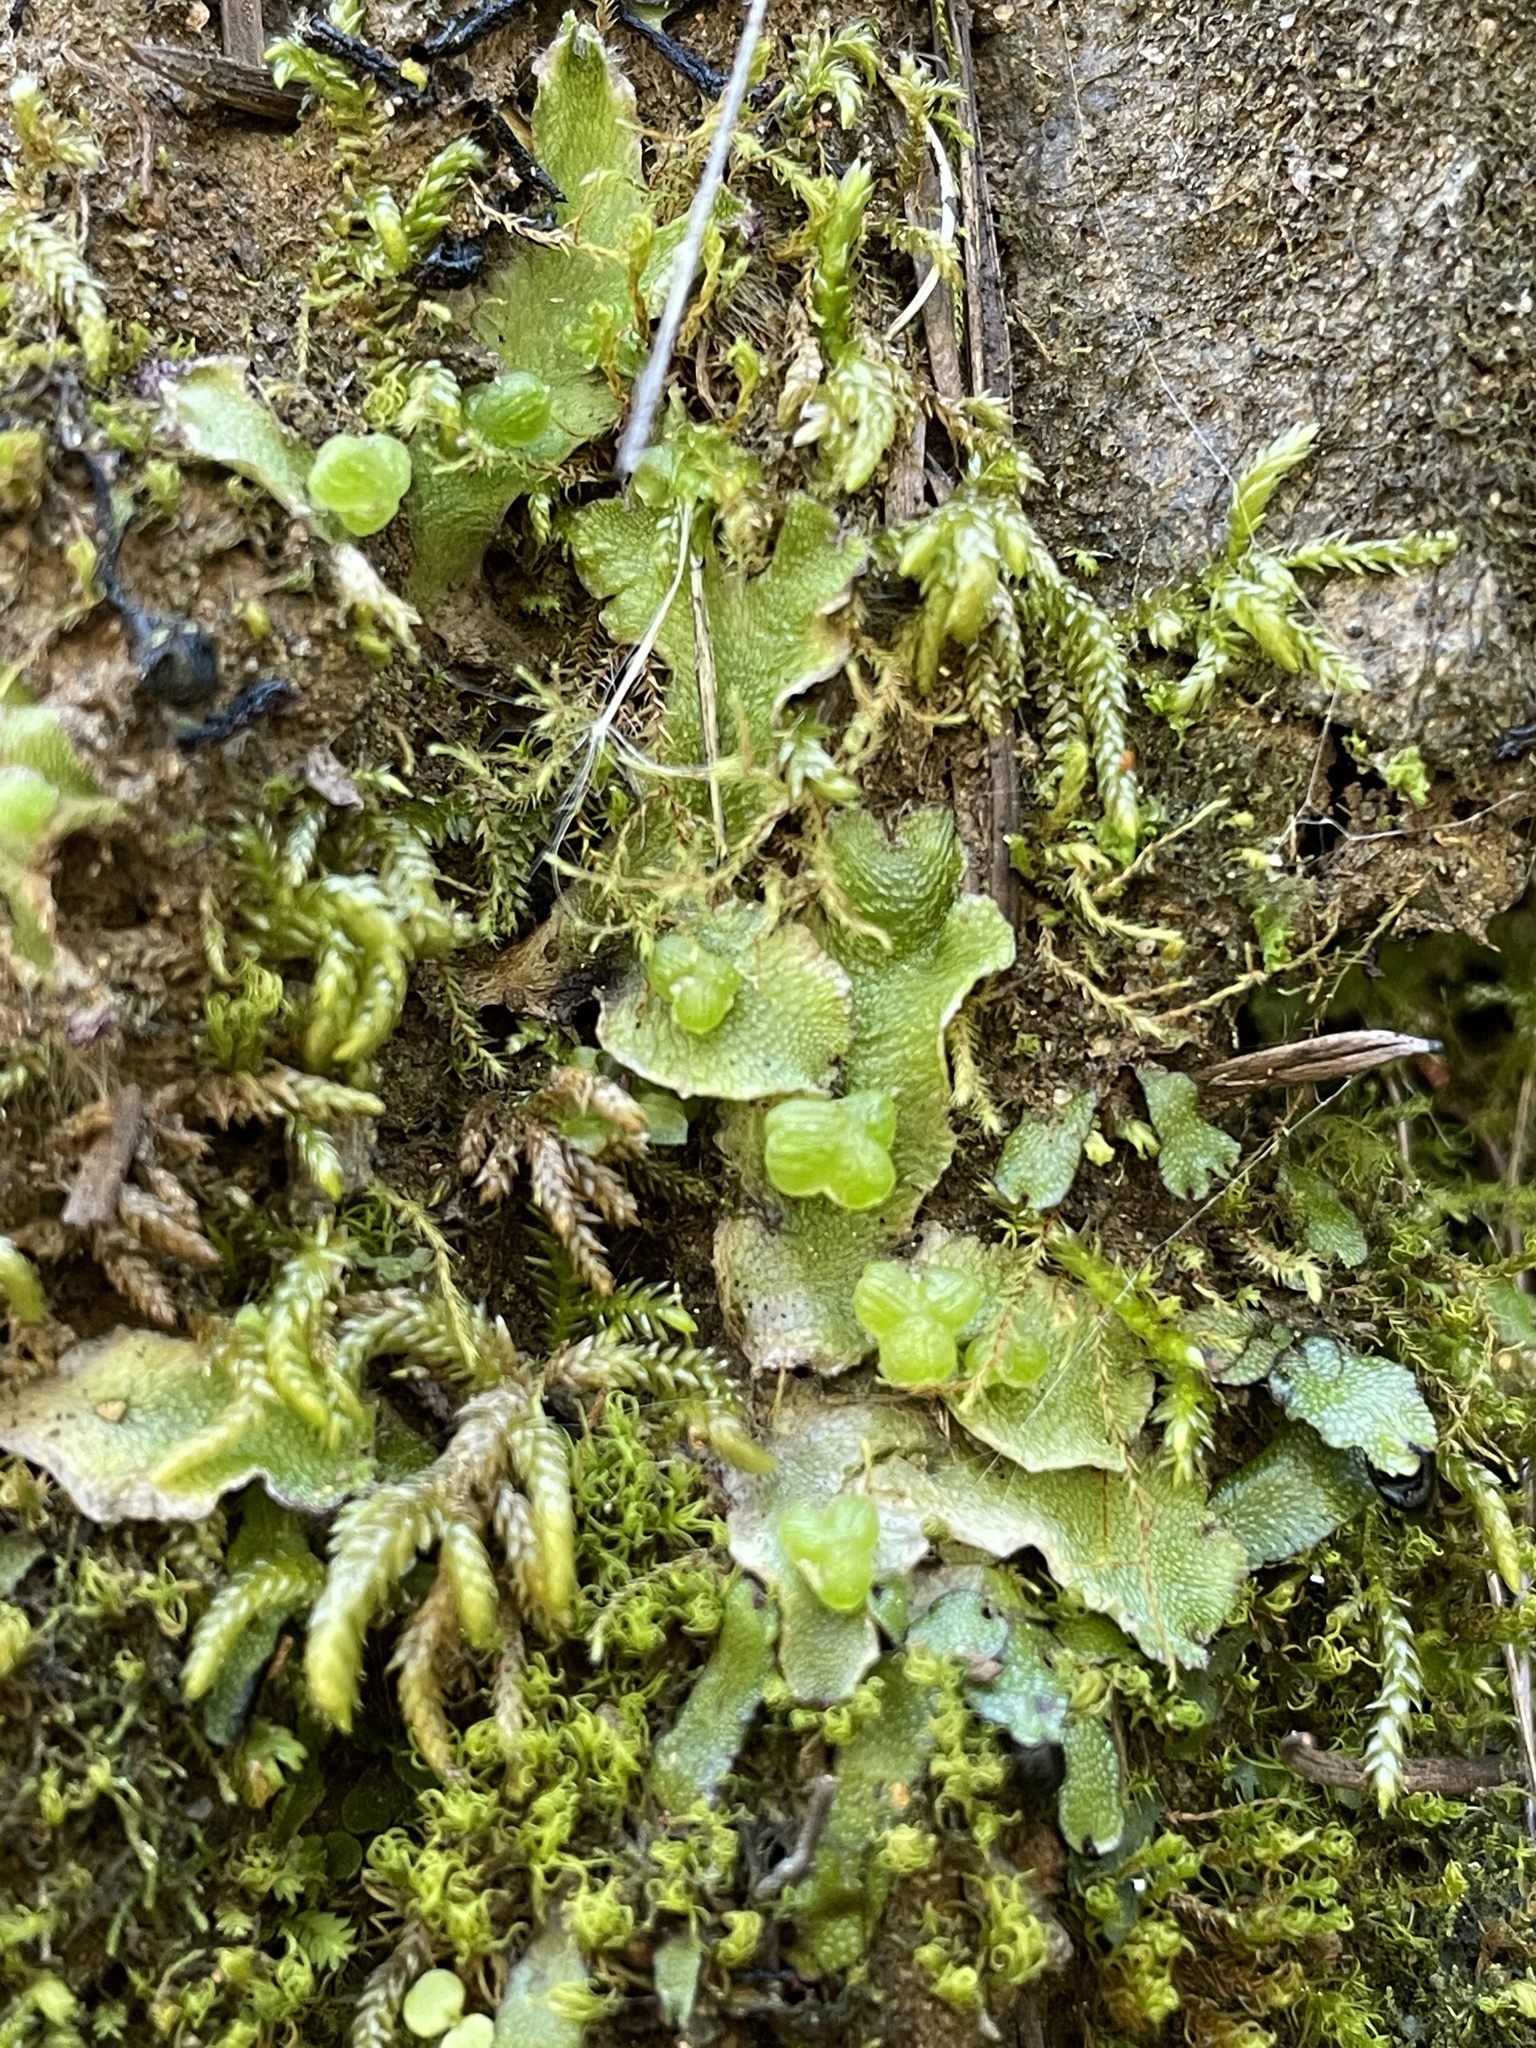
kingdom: Plantae
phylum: Marchantiophyta
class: Marchantiopsida
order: Marchantiales
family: Cleveaceae
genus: Clevea
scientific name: Clevea hyalina
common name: Hyaline liverwort
